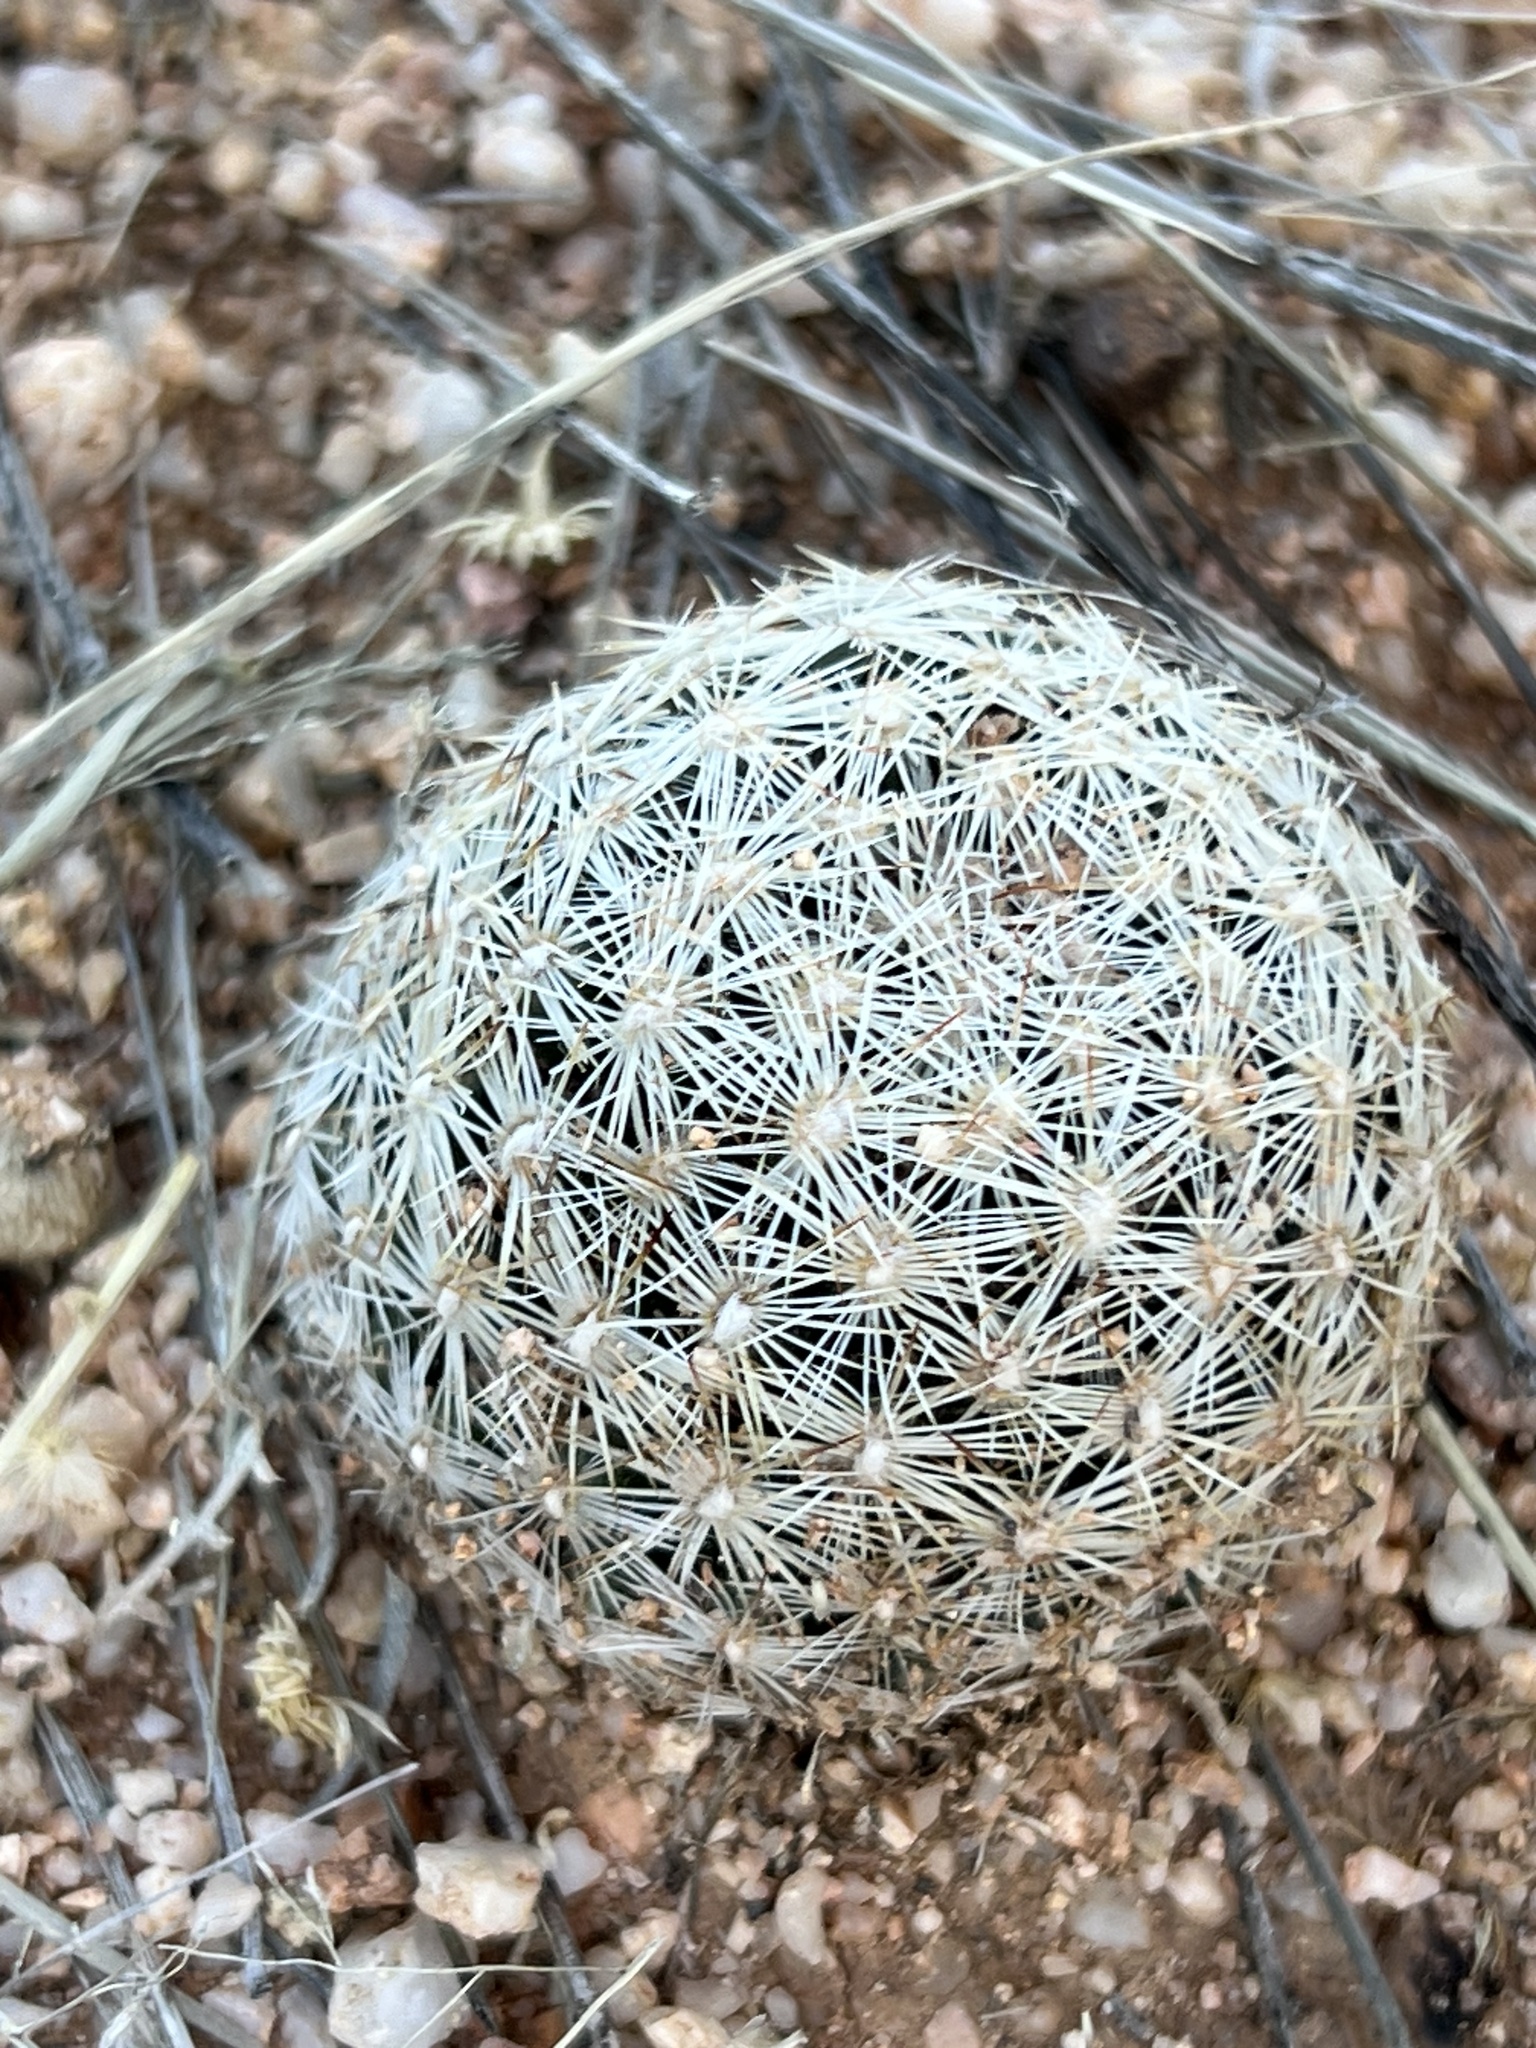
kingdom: Plantae
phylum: Tracheophyta
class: Magnoliopsida
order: Caryophyllales
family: Cactaceae
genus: Pelecyphora
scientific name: Pelecyphora vivipara
